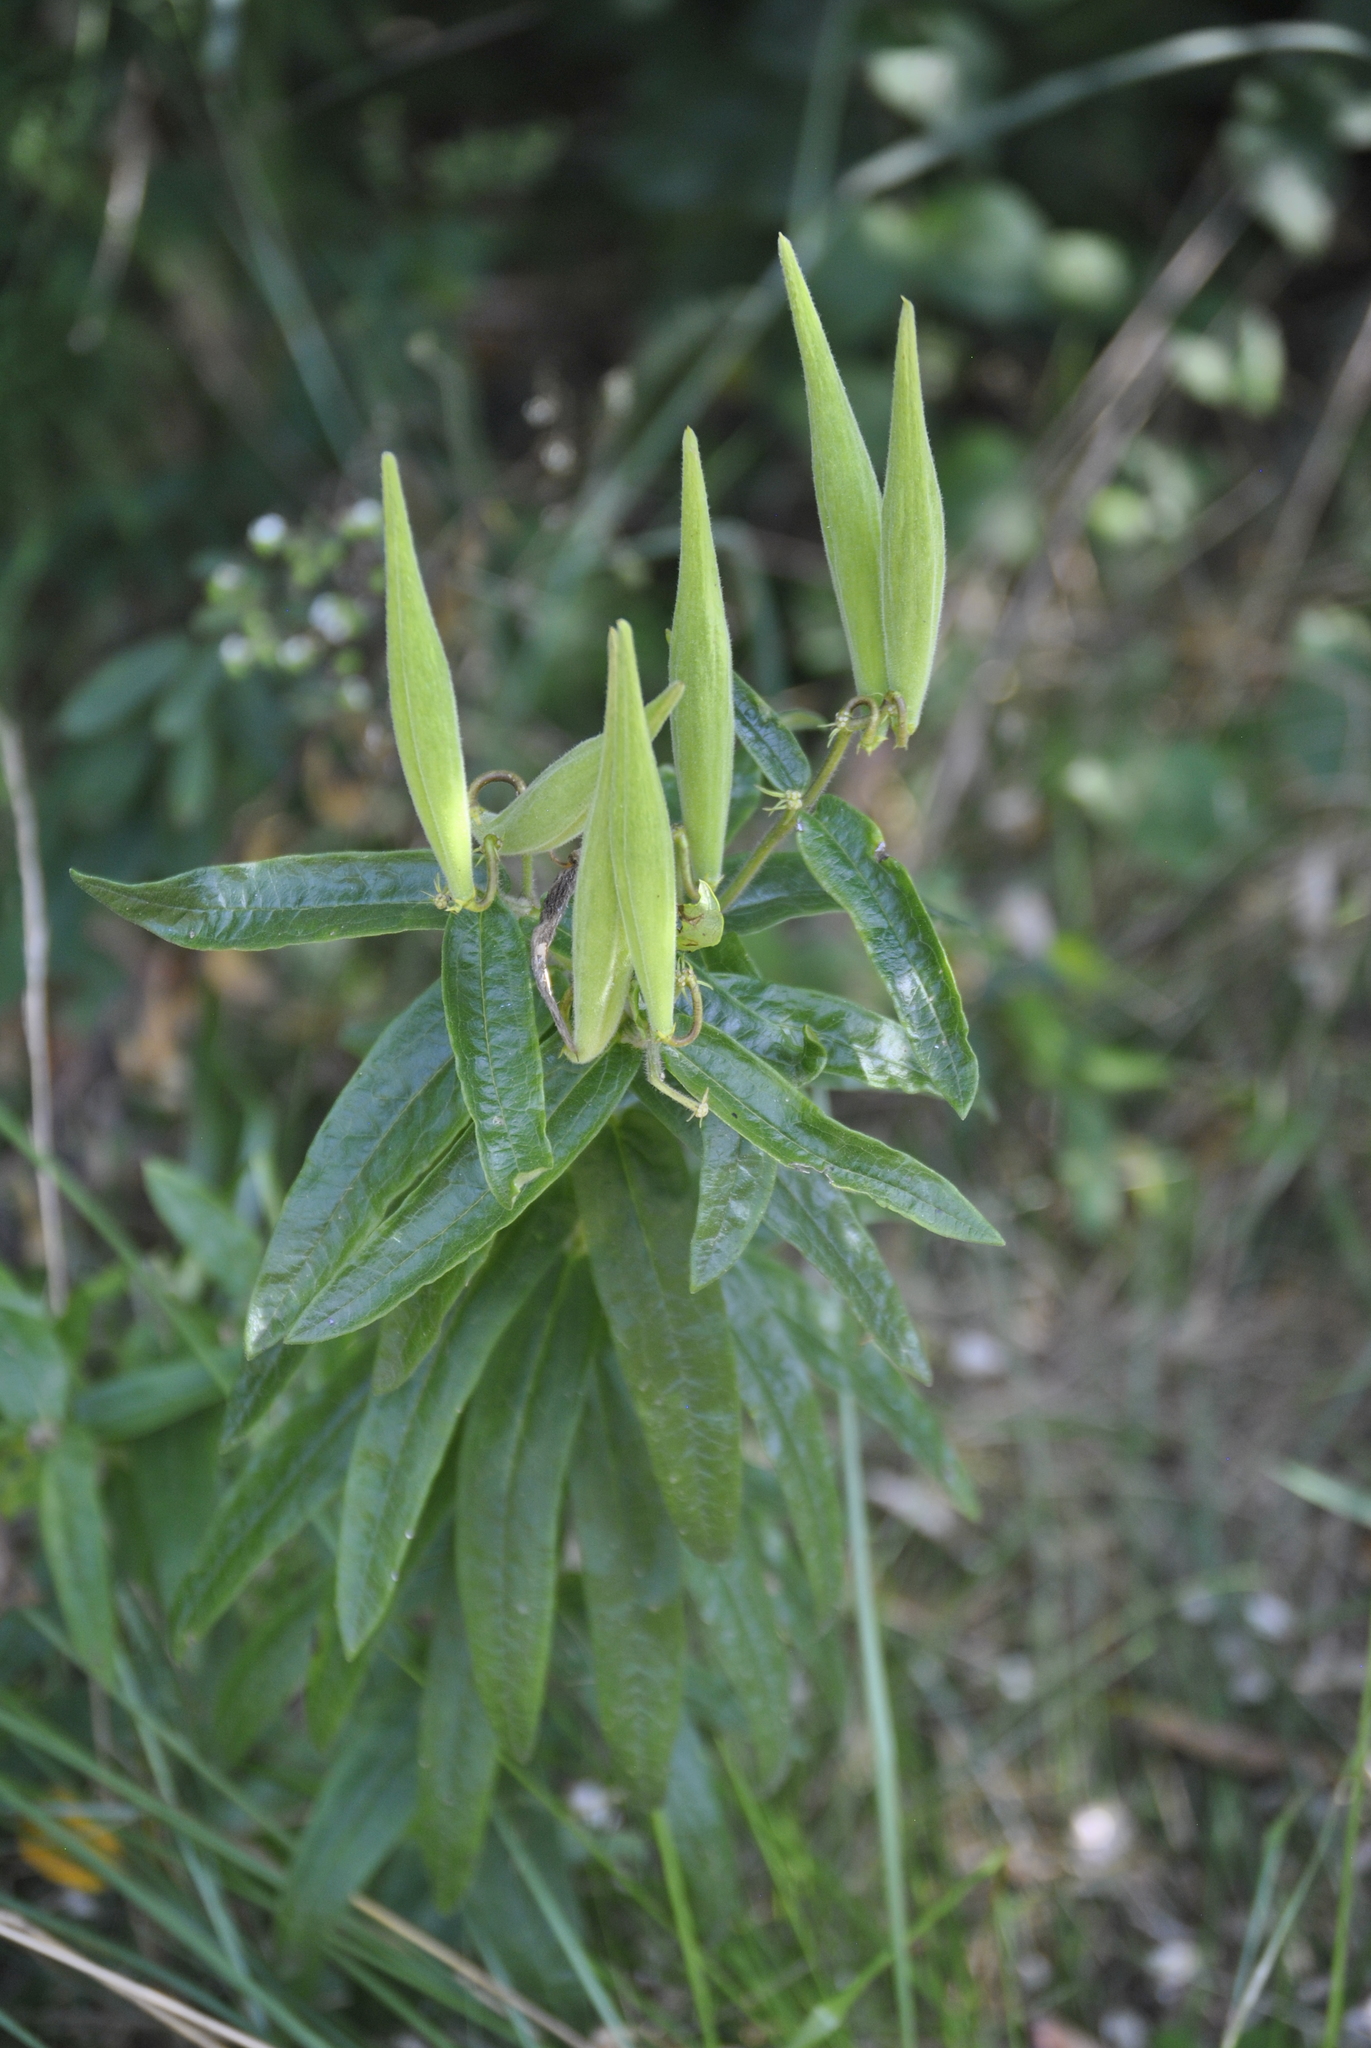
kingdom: Plantae
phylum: Tracheophyta
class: Magnoliopsida
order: Gentianales
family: Apocynaceae
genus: Asclepias
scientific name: Asclepias tuberosa
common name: Butterfly milkweed
